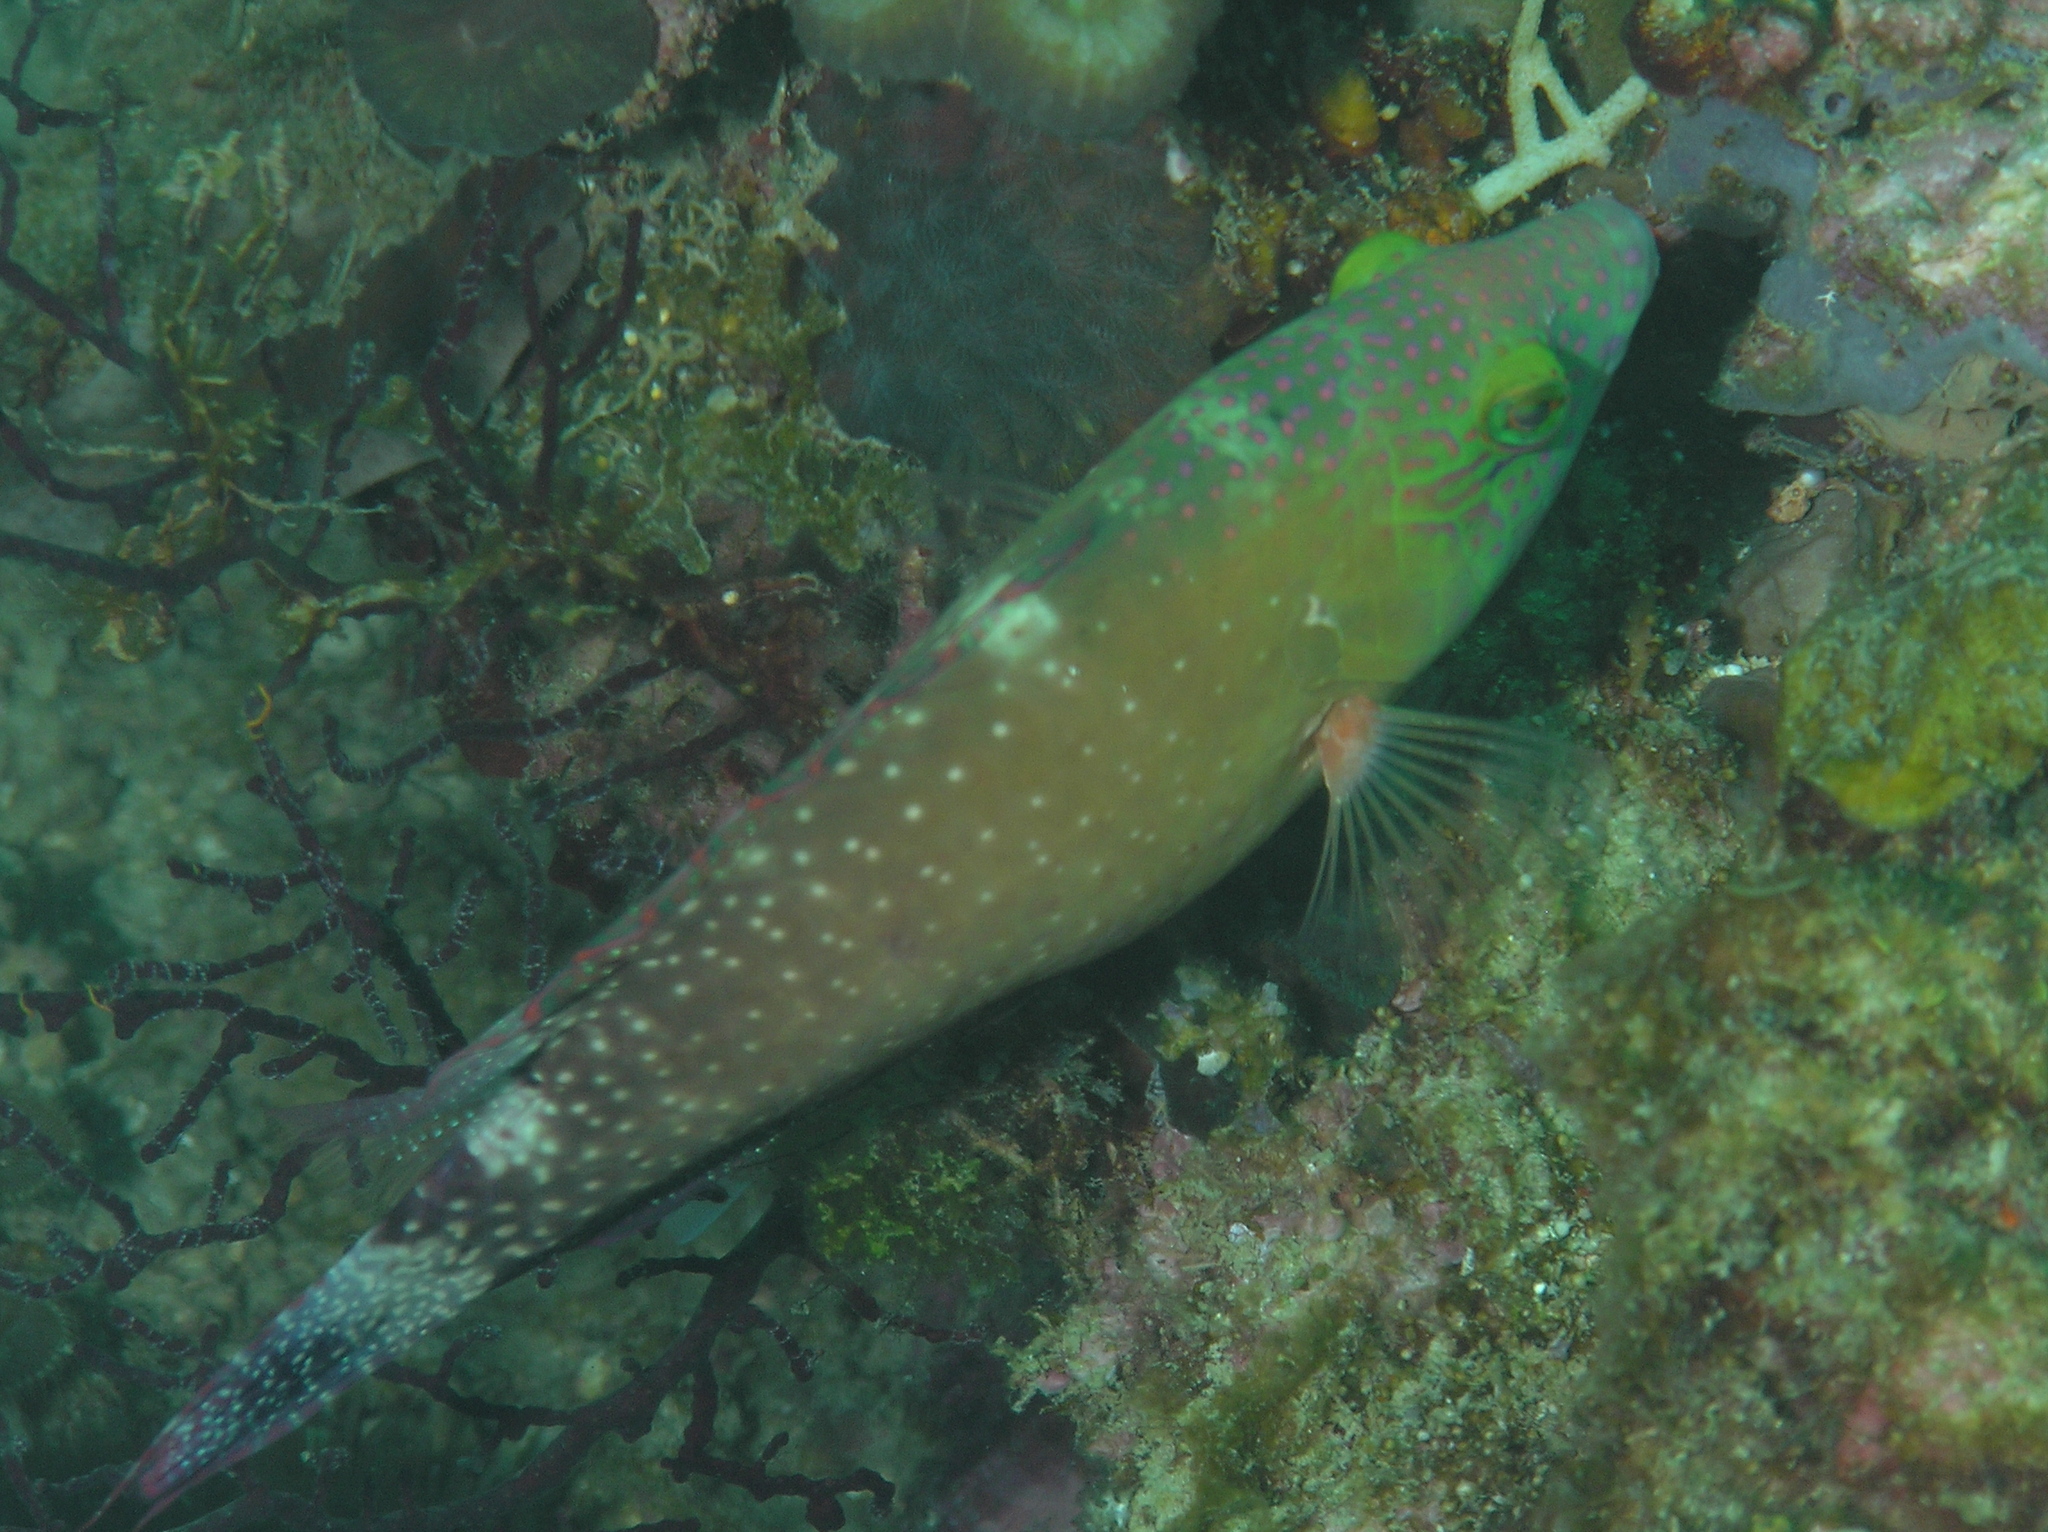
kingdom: Animalia
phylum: Chordata
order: Perciformes
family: Labridae
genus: Cheilinus
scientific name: Cheilinus chlorourus
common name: Floral wrasse
